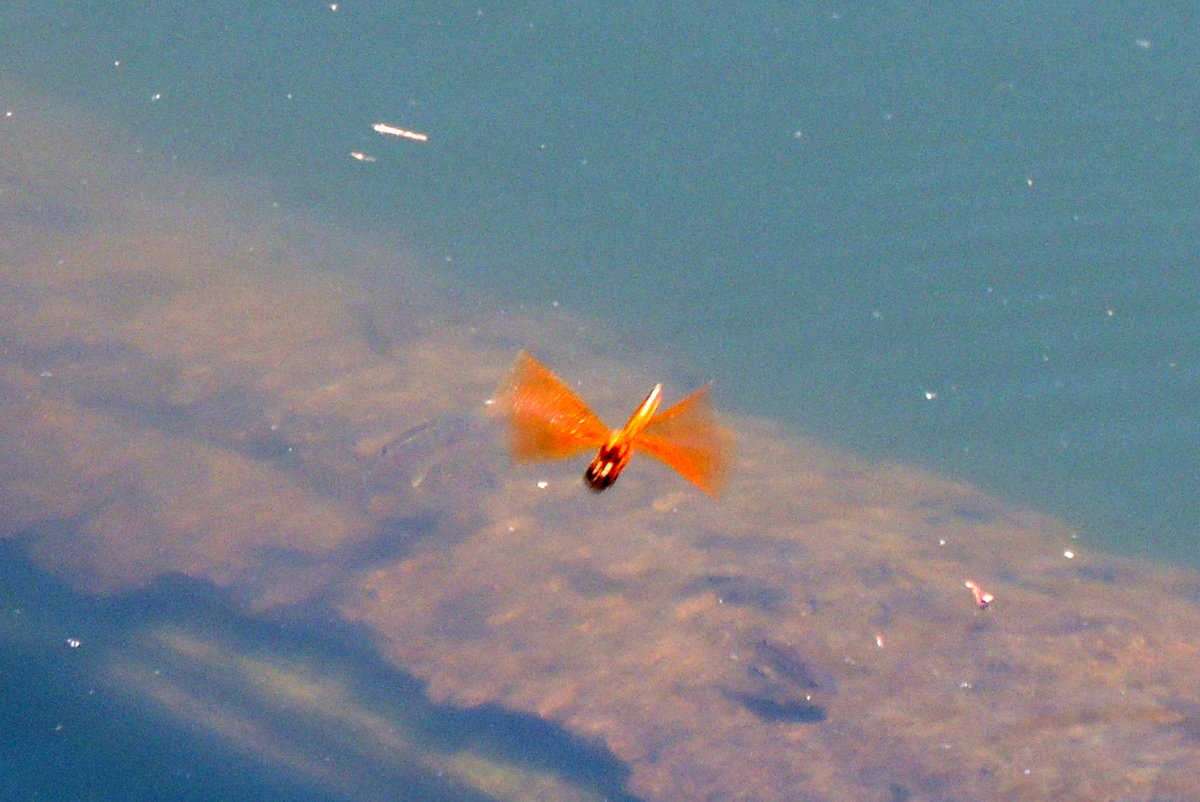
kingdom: Animalia
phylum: Arthropoda
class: Insecta
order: Odonata
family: Libellulidae
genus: Perithemis
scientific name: Perithemis tenera
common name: Eastern amberwing
